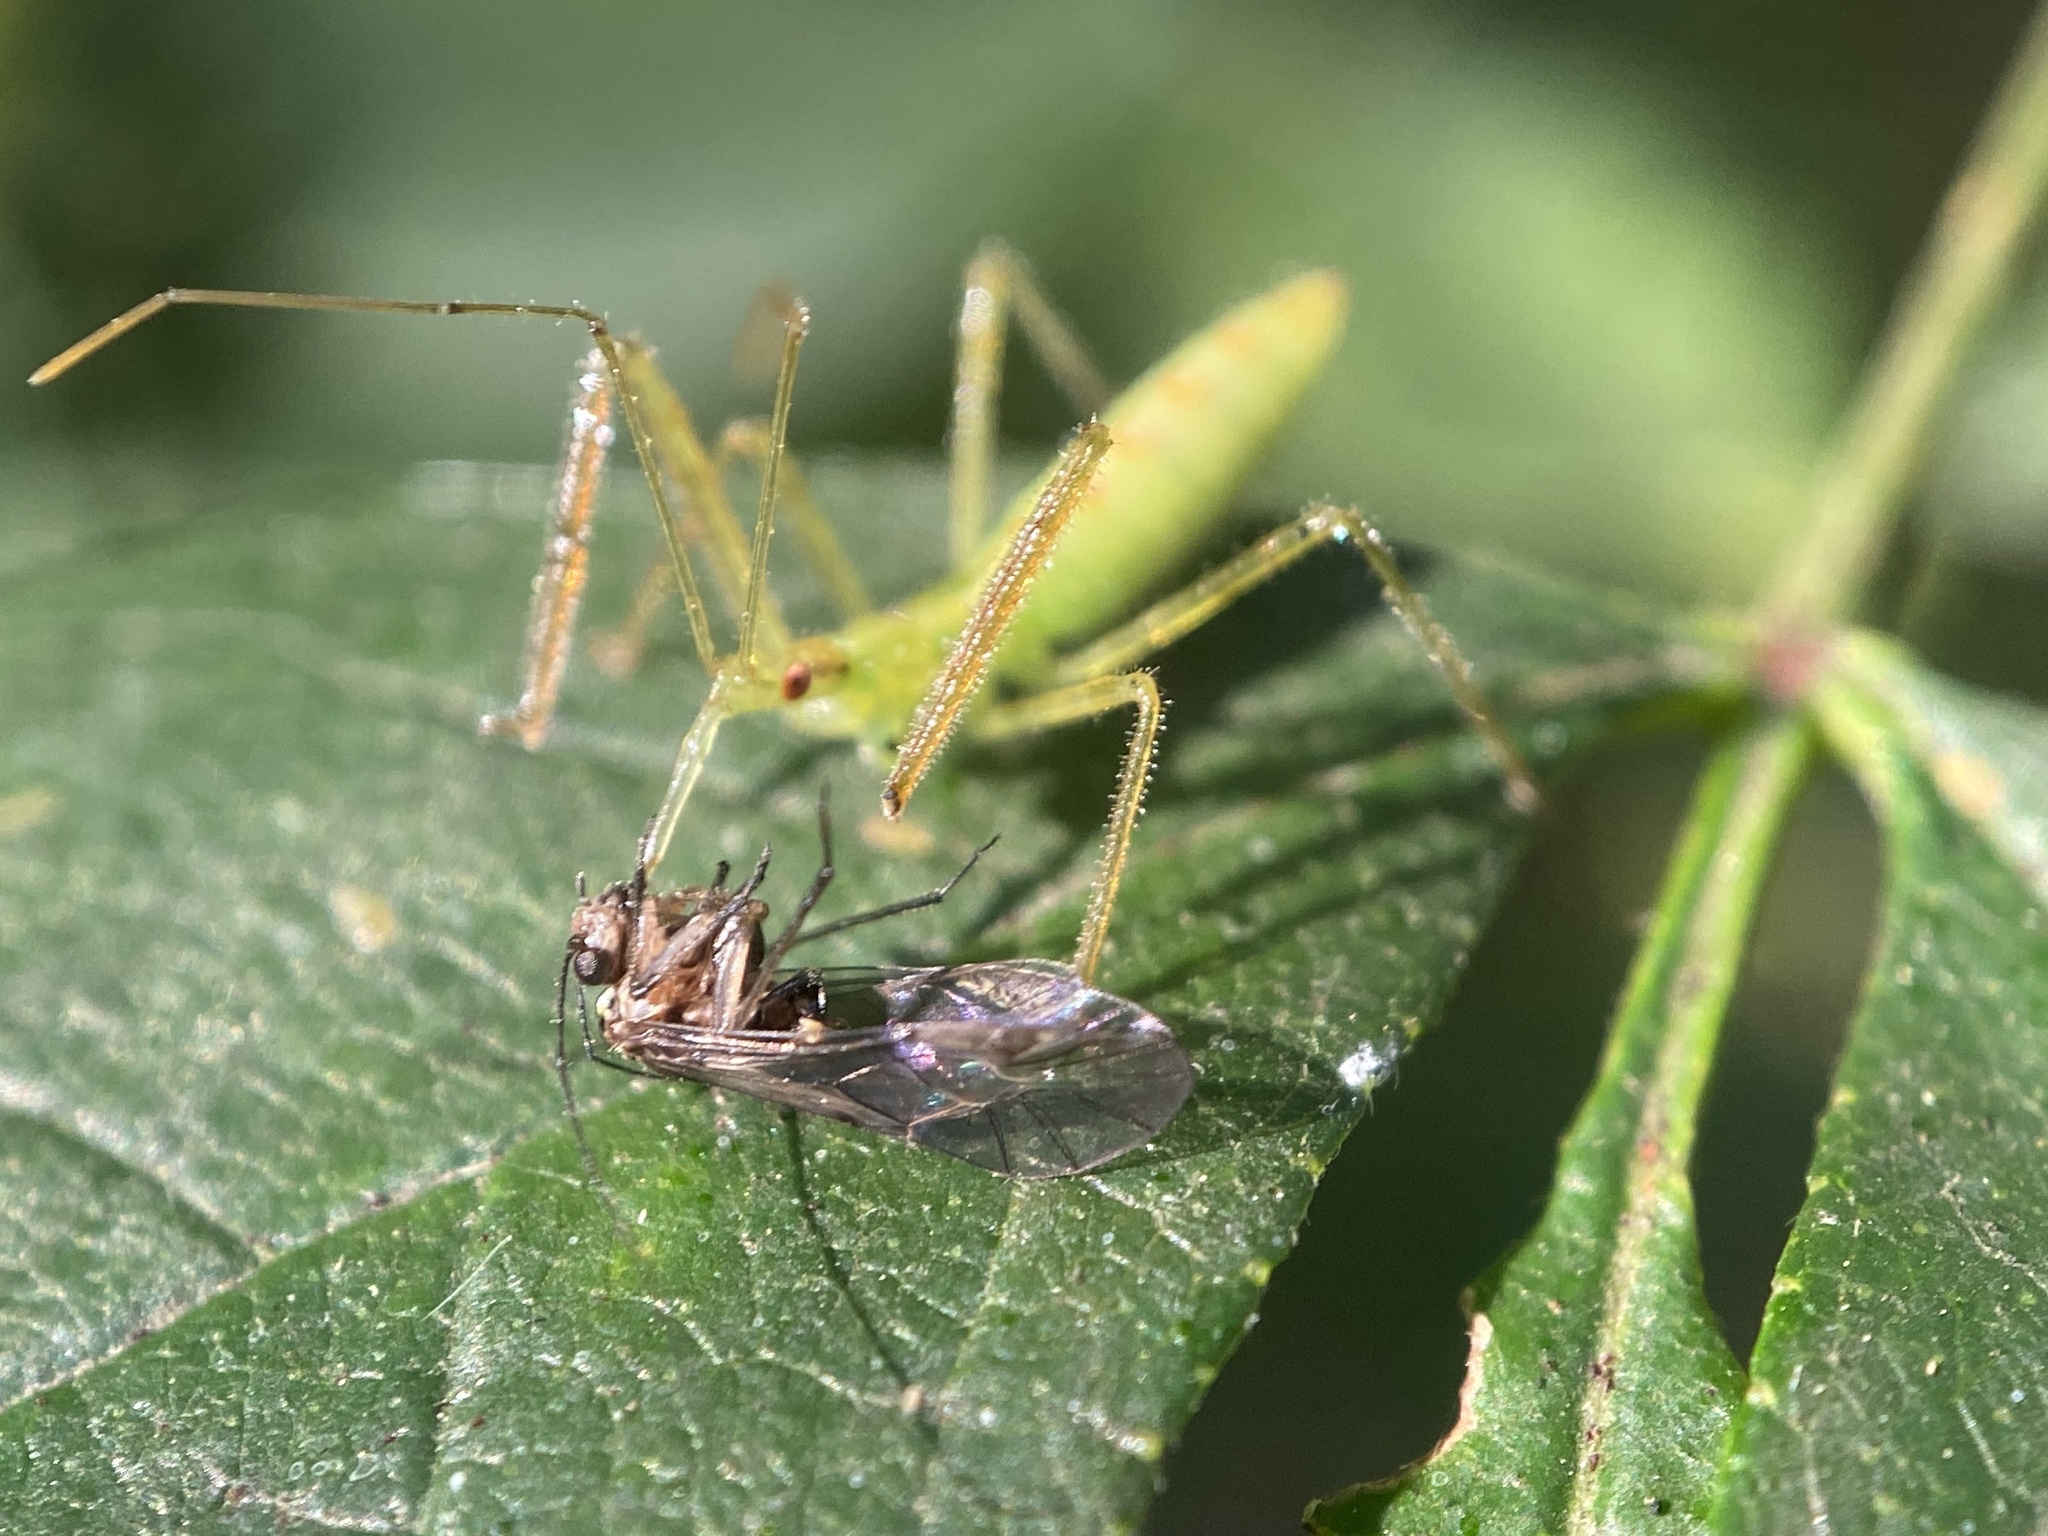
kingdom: Animalia
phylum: Arthropoda
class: Insecta
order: Hemiptera
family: Reduviidae
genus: Zelus
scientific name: Zelus luridus
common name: Pale green assassin bug
